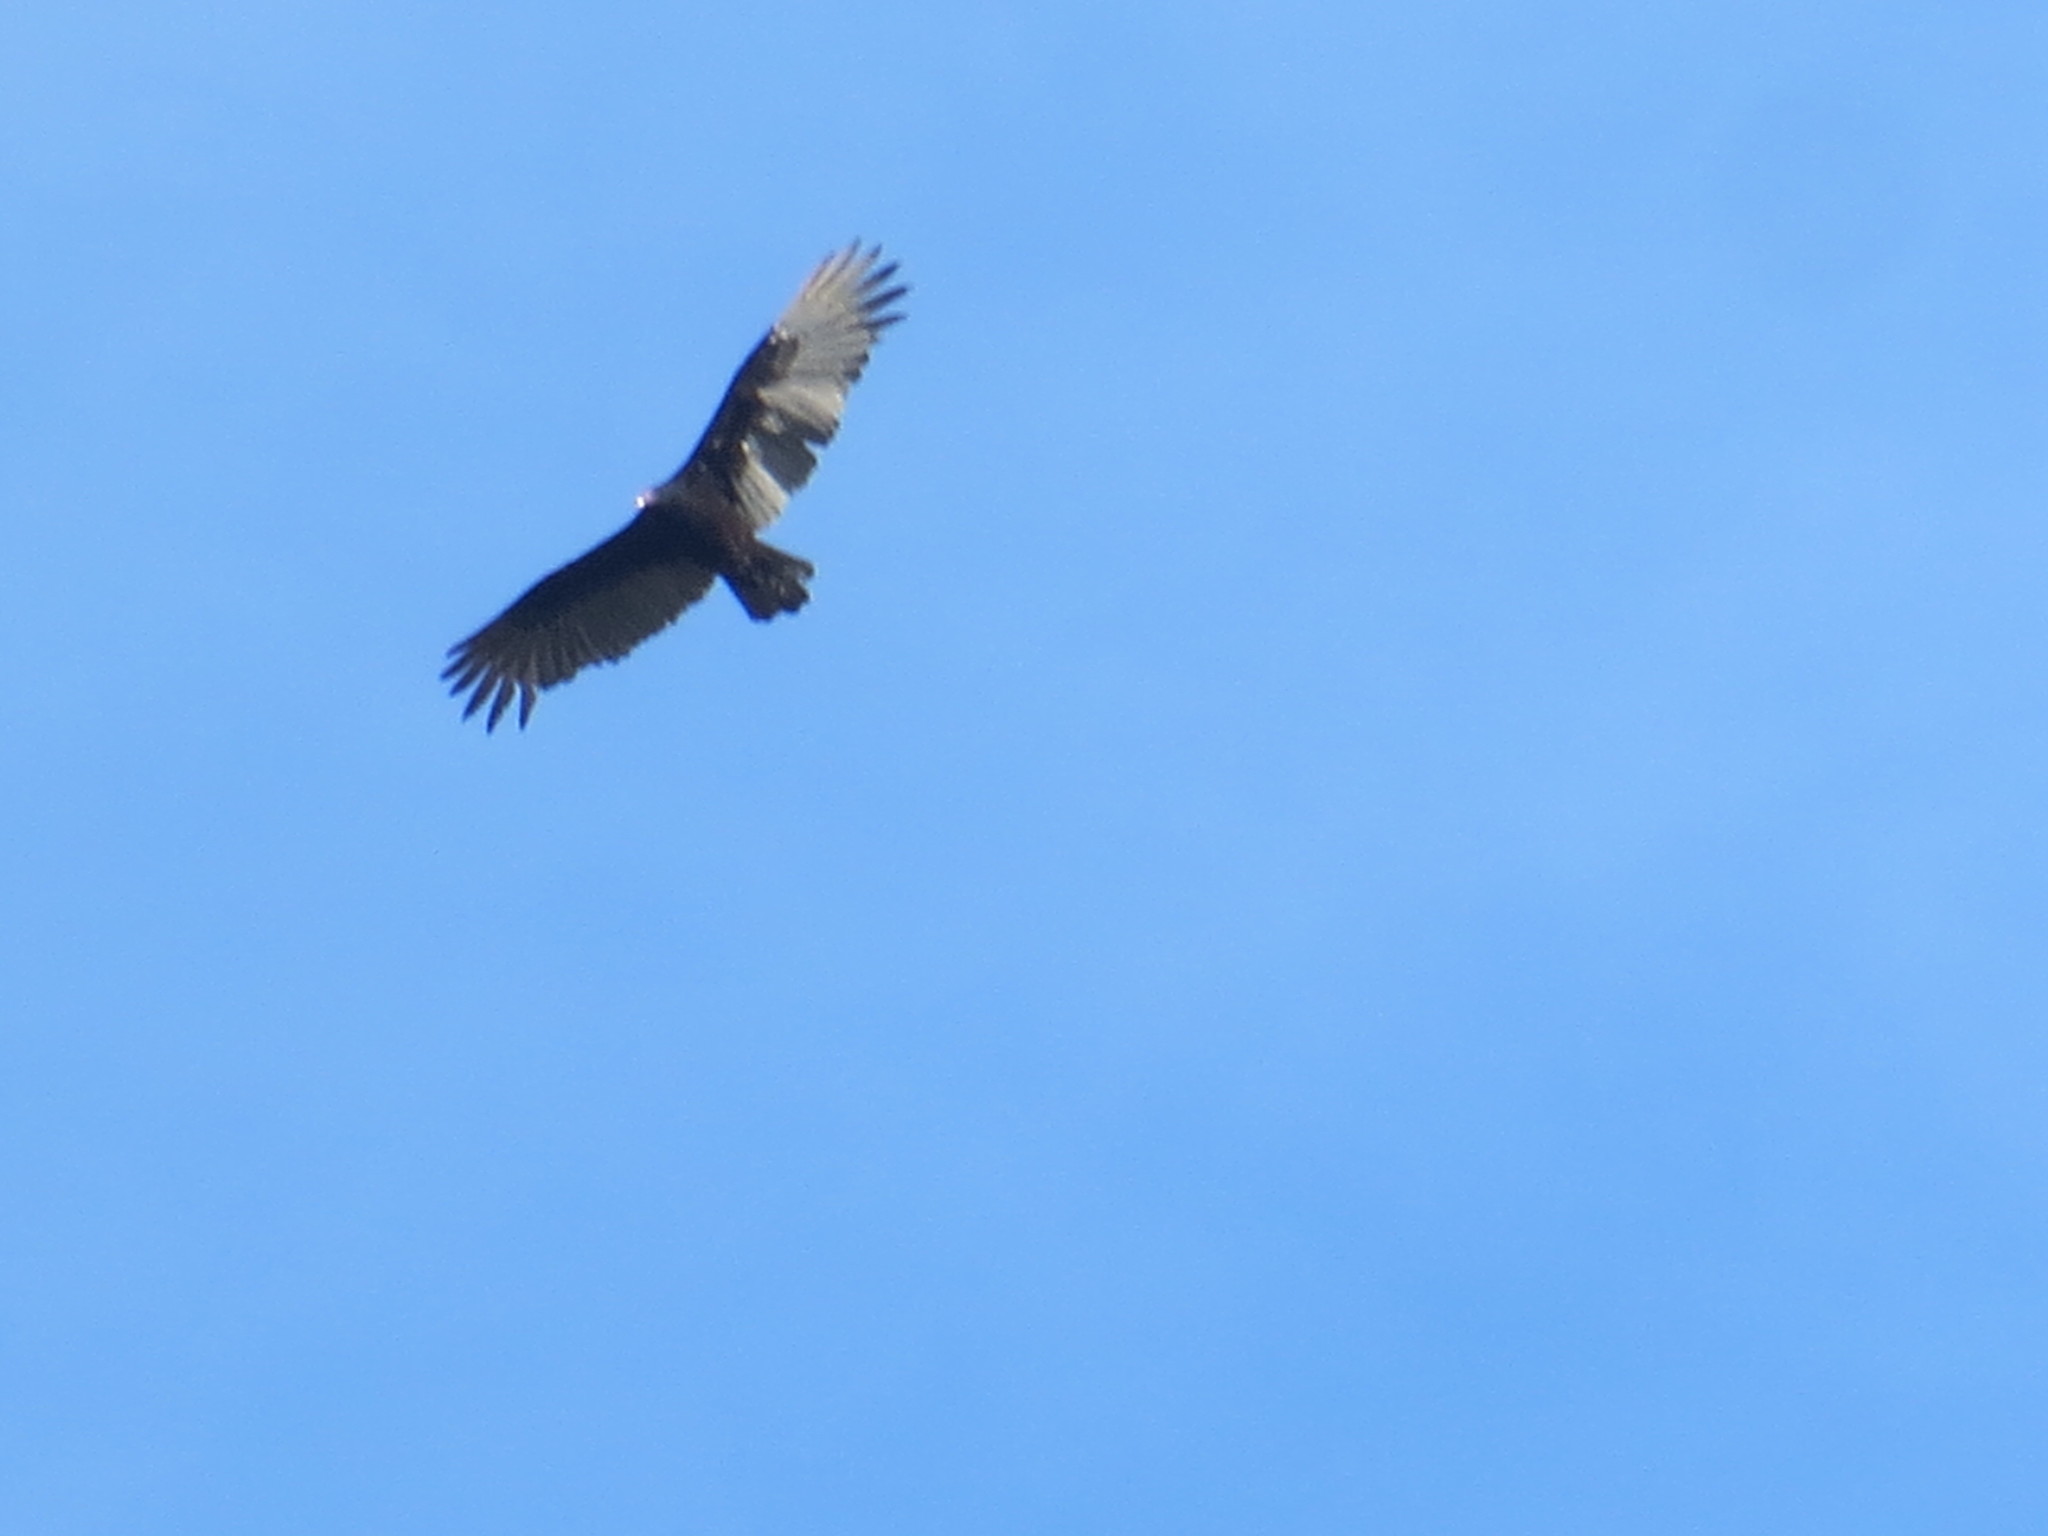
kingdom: Animalia
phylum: Chordata
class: Aves
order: Accipitriformes
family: Cathartidae
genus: Cathartes
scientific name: Cathartes aura
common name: Turkey vulture
